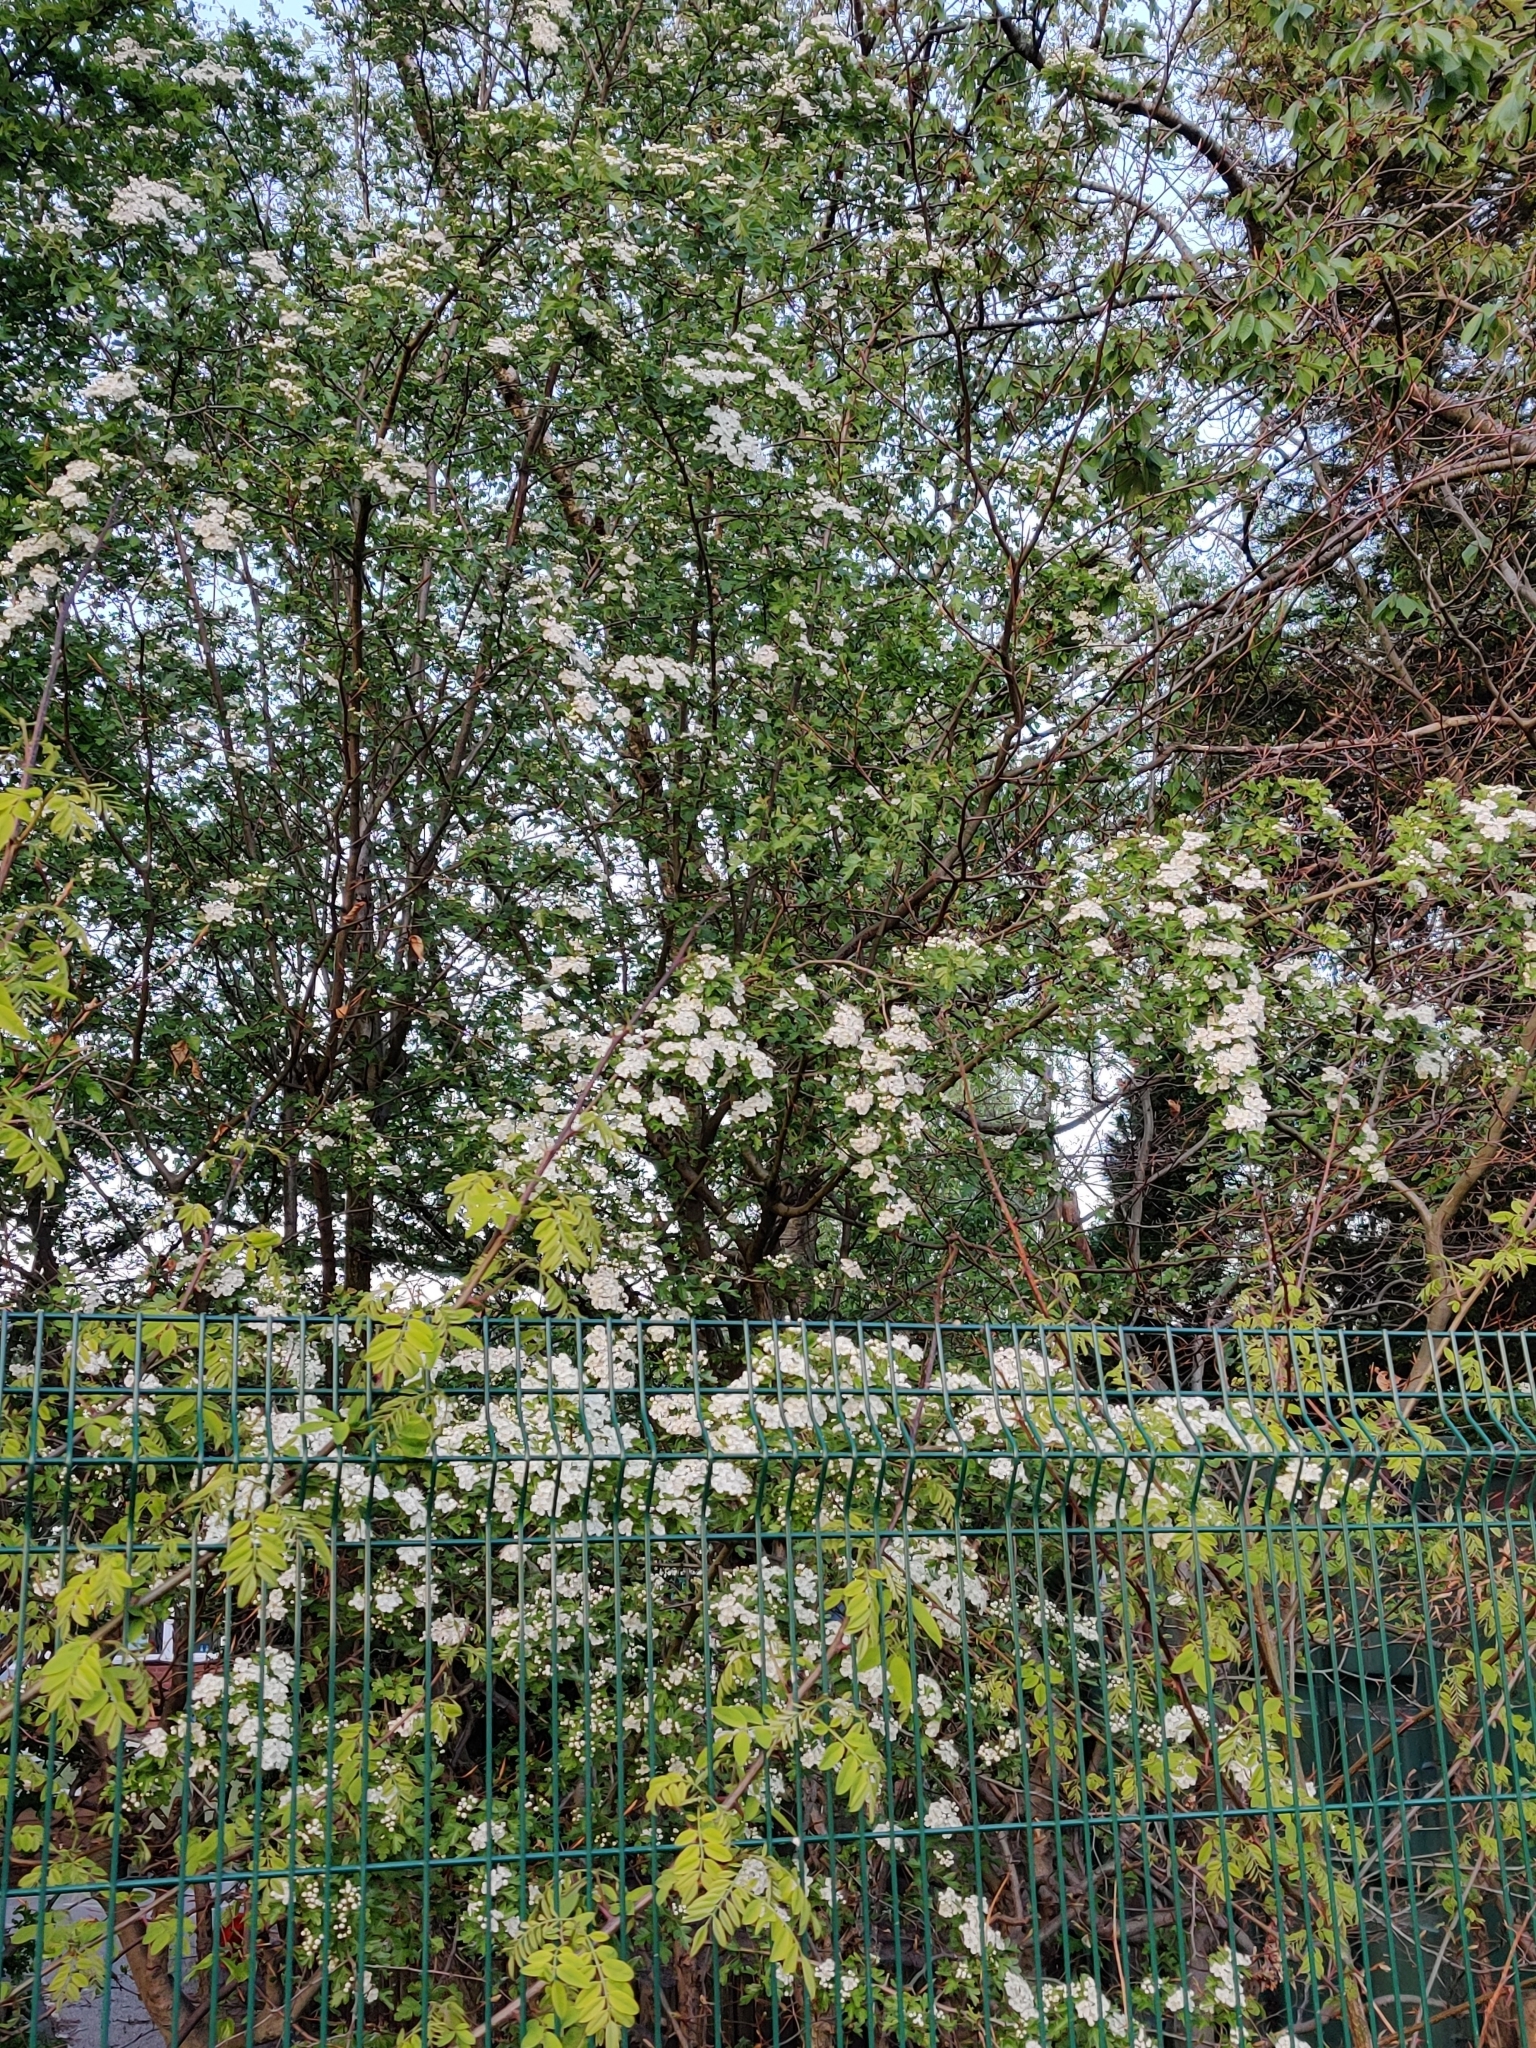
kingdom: Plantae
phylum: Tracheophyta
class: Magnoliopsida
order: Rosales
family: Rosaceae
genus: Crataegus
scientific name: Crataegus monogyna
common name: Hawthorn
